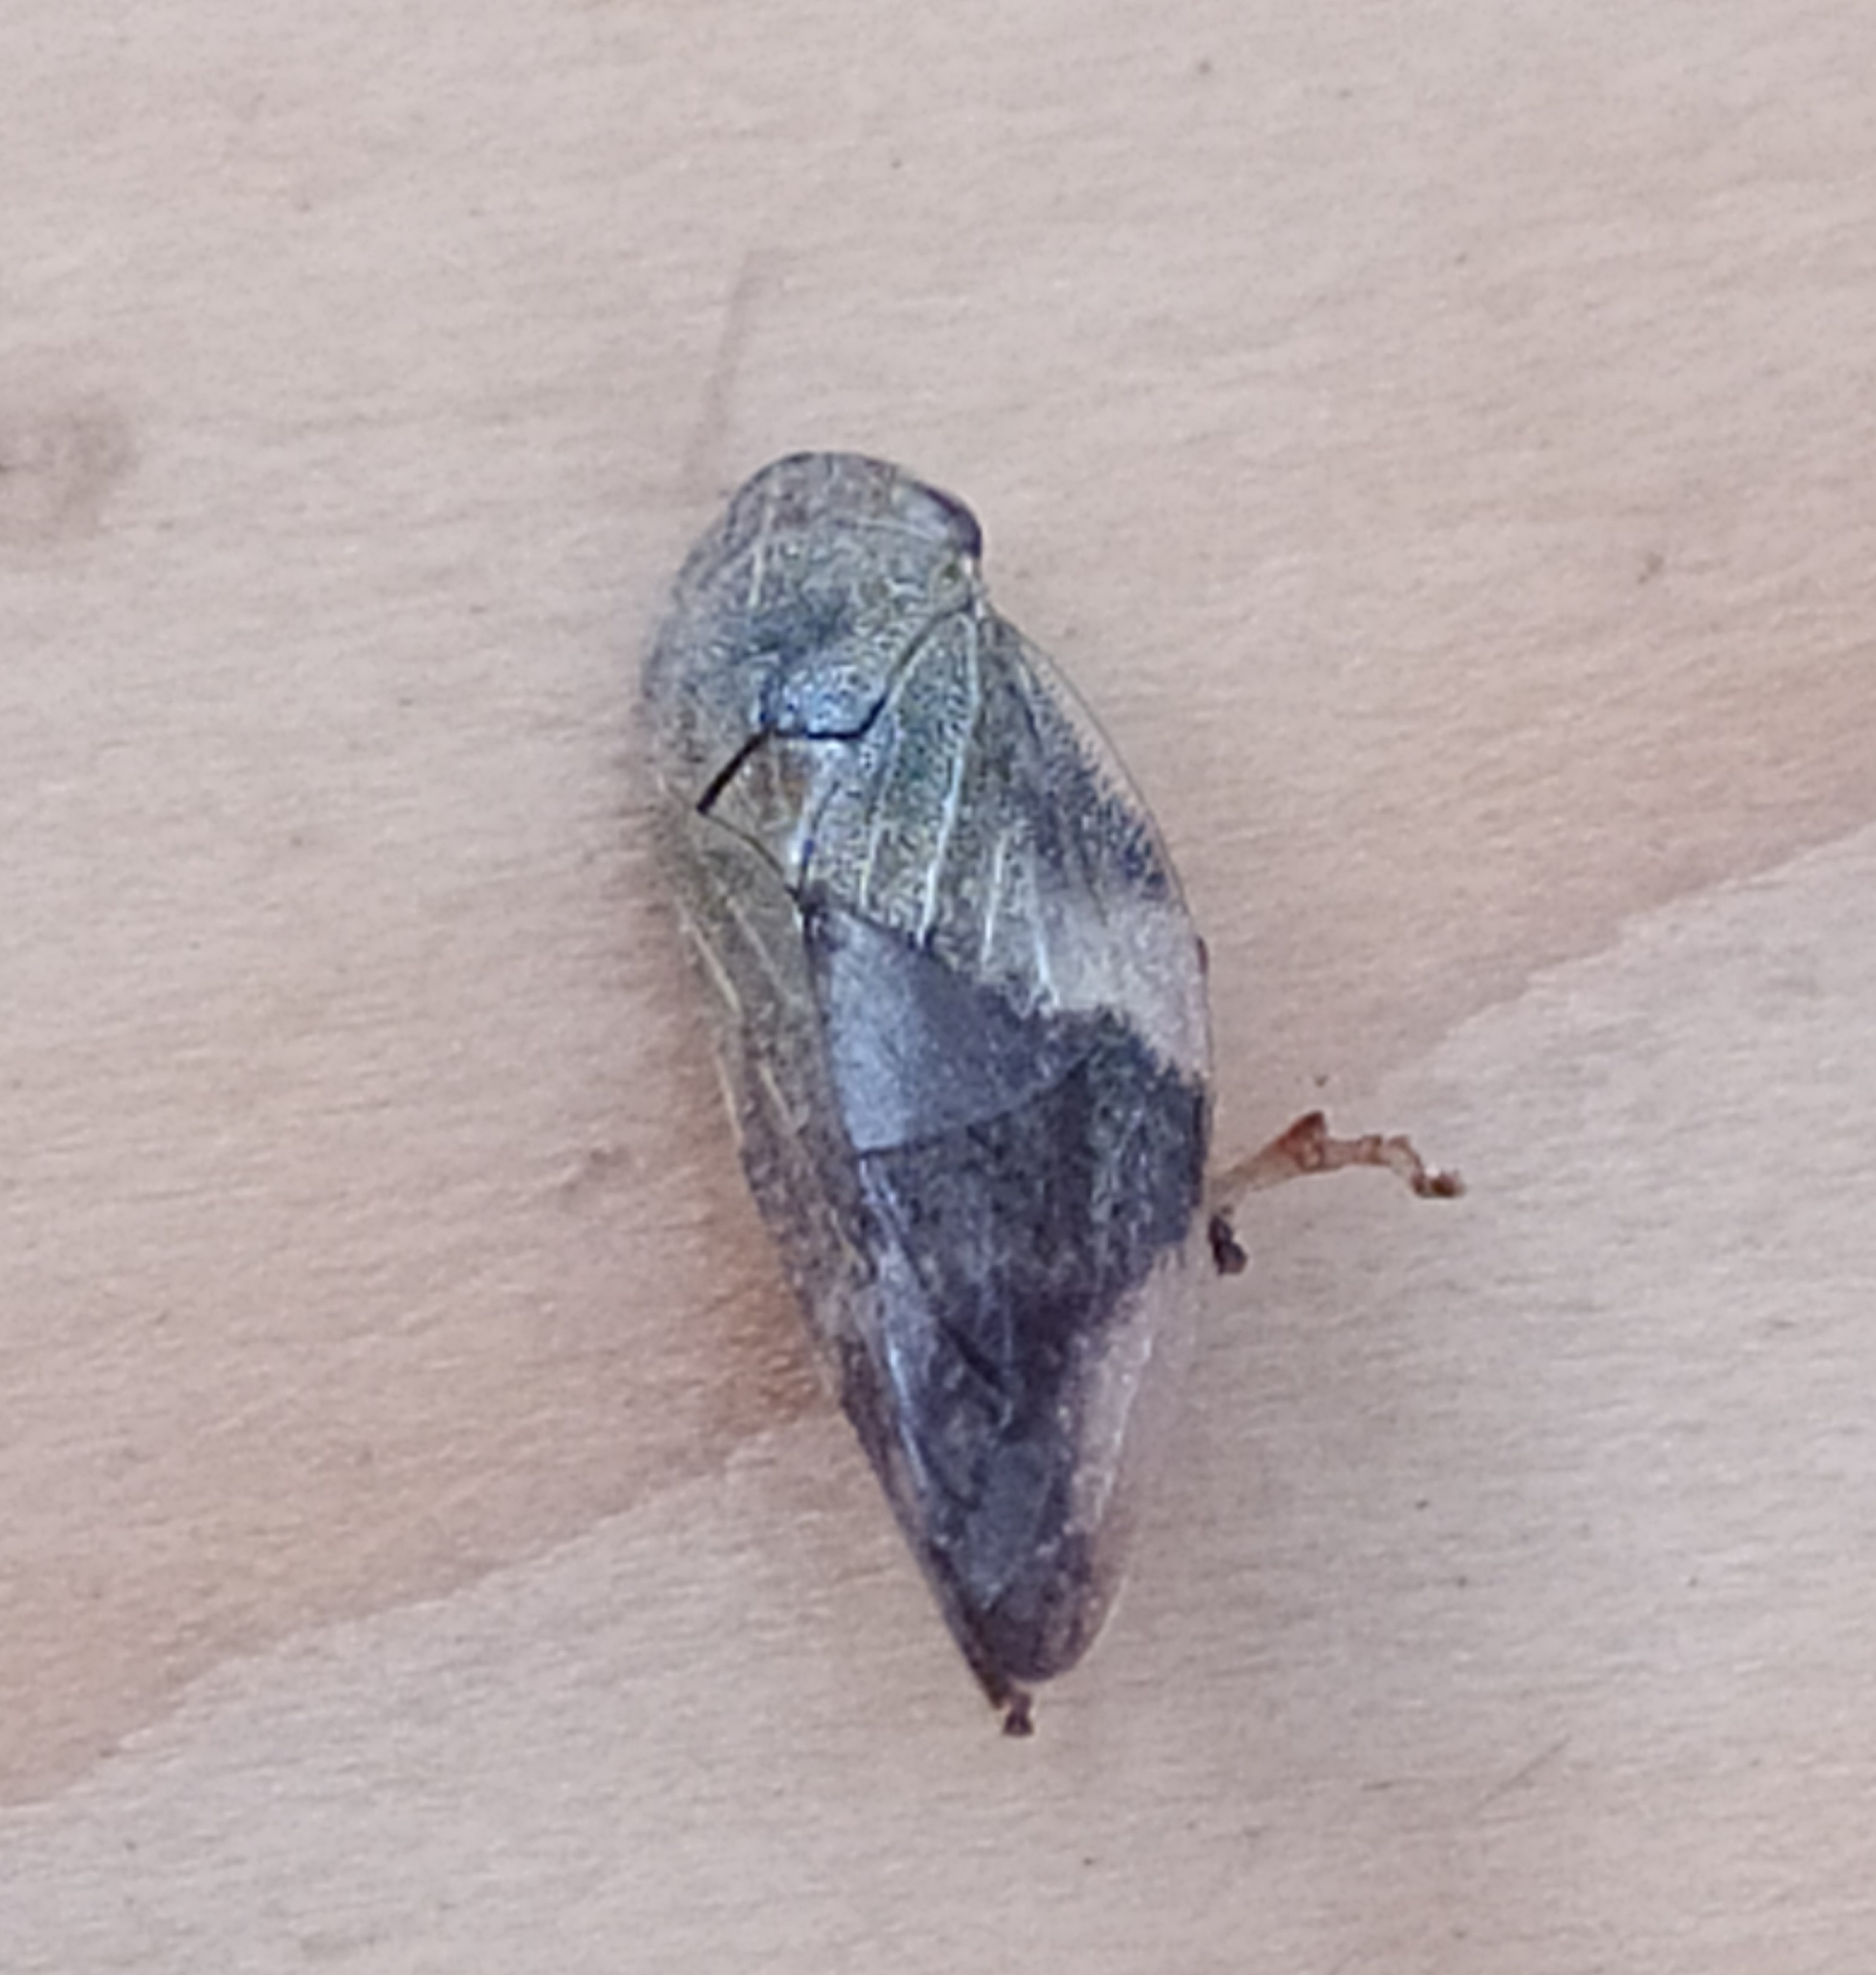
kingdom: Animalia
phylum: Arthropoda
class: Insecta
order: Hemiptera
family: Aphrophoridae
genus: Aphrophora
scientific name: Aphrophora alni
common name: European alder spittlebug
